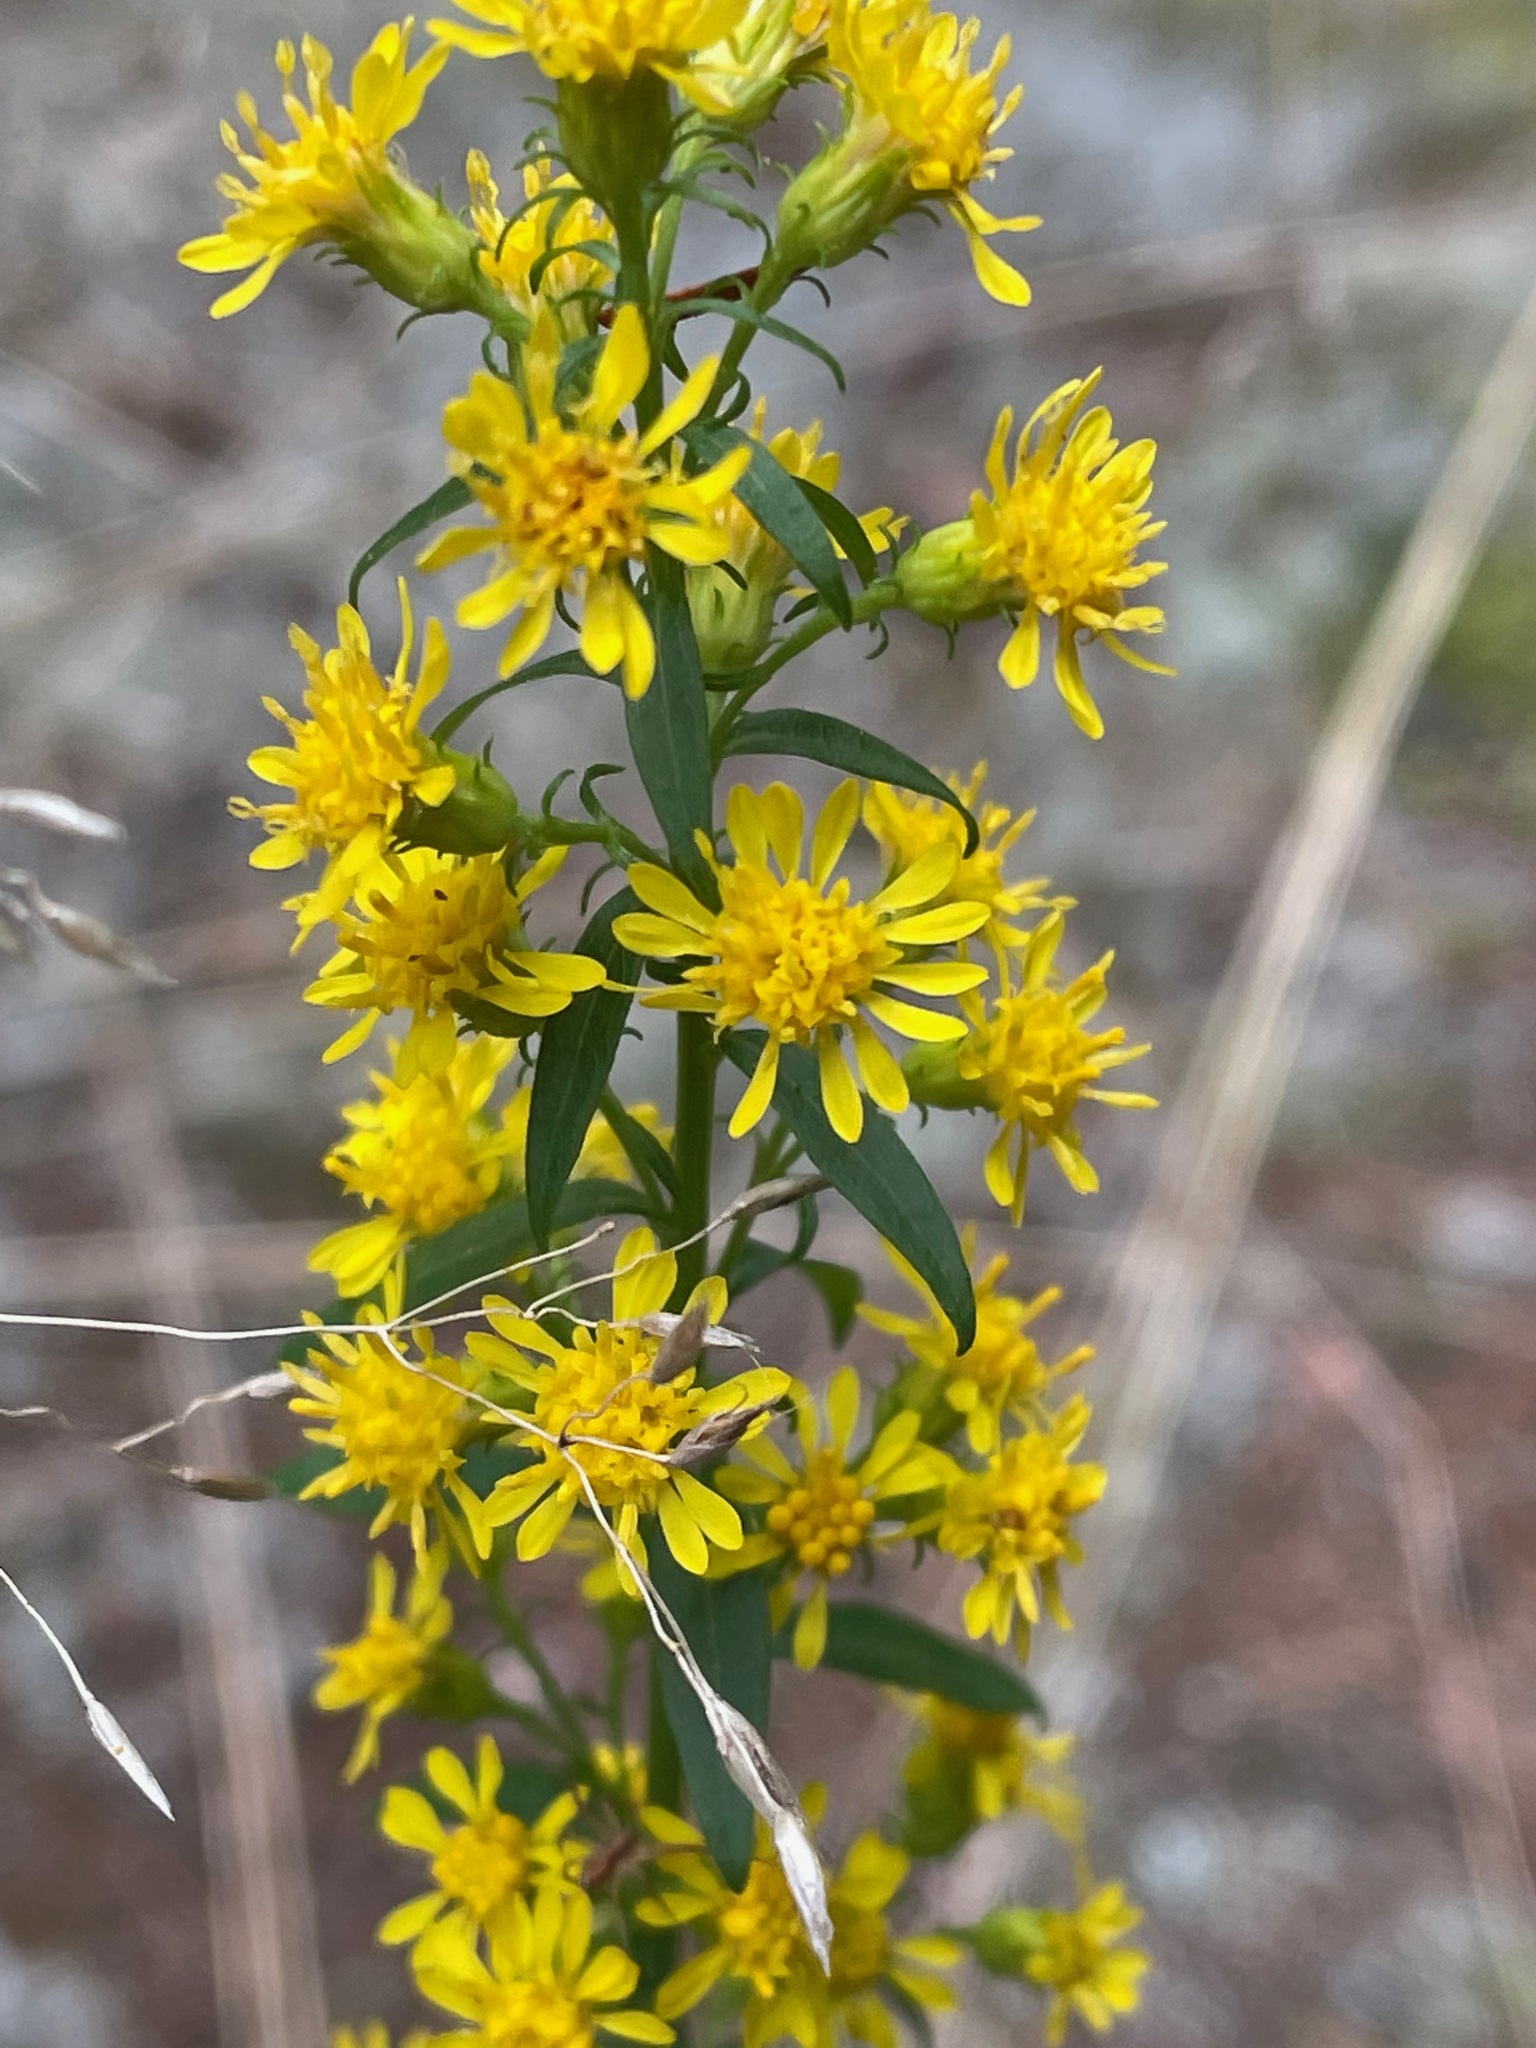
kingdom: Plantae
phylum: Tracheophyta
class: Magnoliopsida
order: Asterales
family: Asteraceae
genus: Solidago
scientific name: Solidago squarrosa
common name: Stout goldenrod
